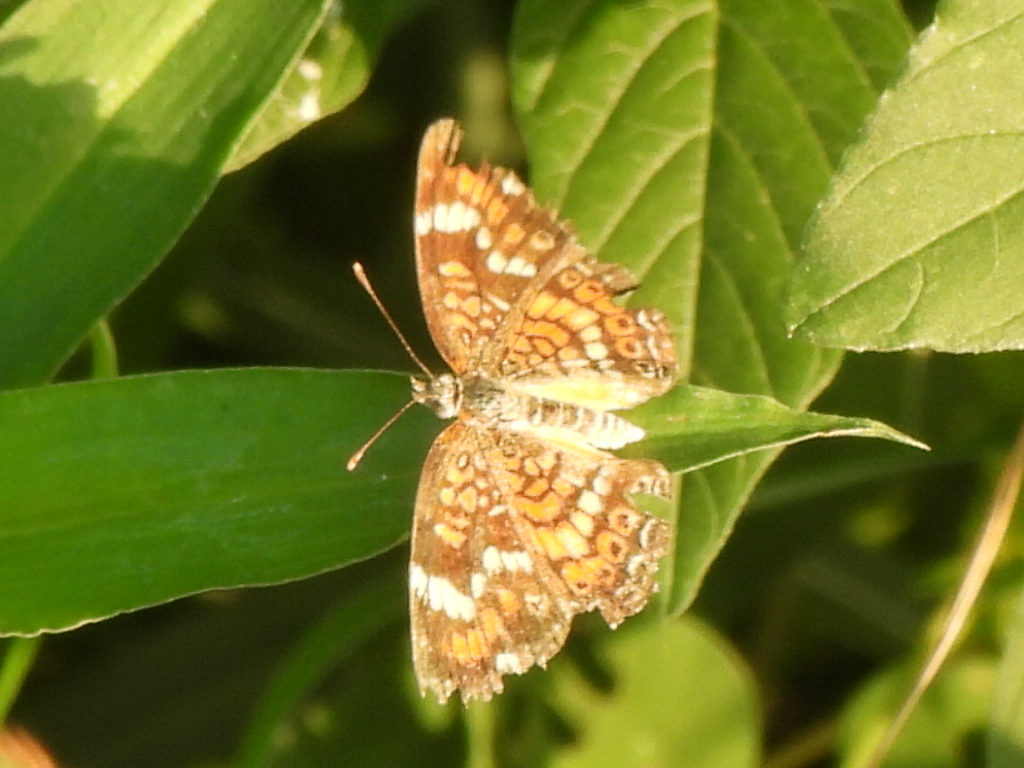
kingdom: Animalia
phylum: Arthropoda
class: Insecta
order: Lepidoptera
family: Nymphalidae
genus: Phyciodes
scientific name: Phyciodes phaon
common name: Phaon crescent
